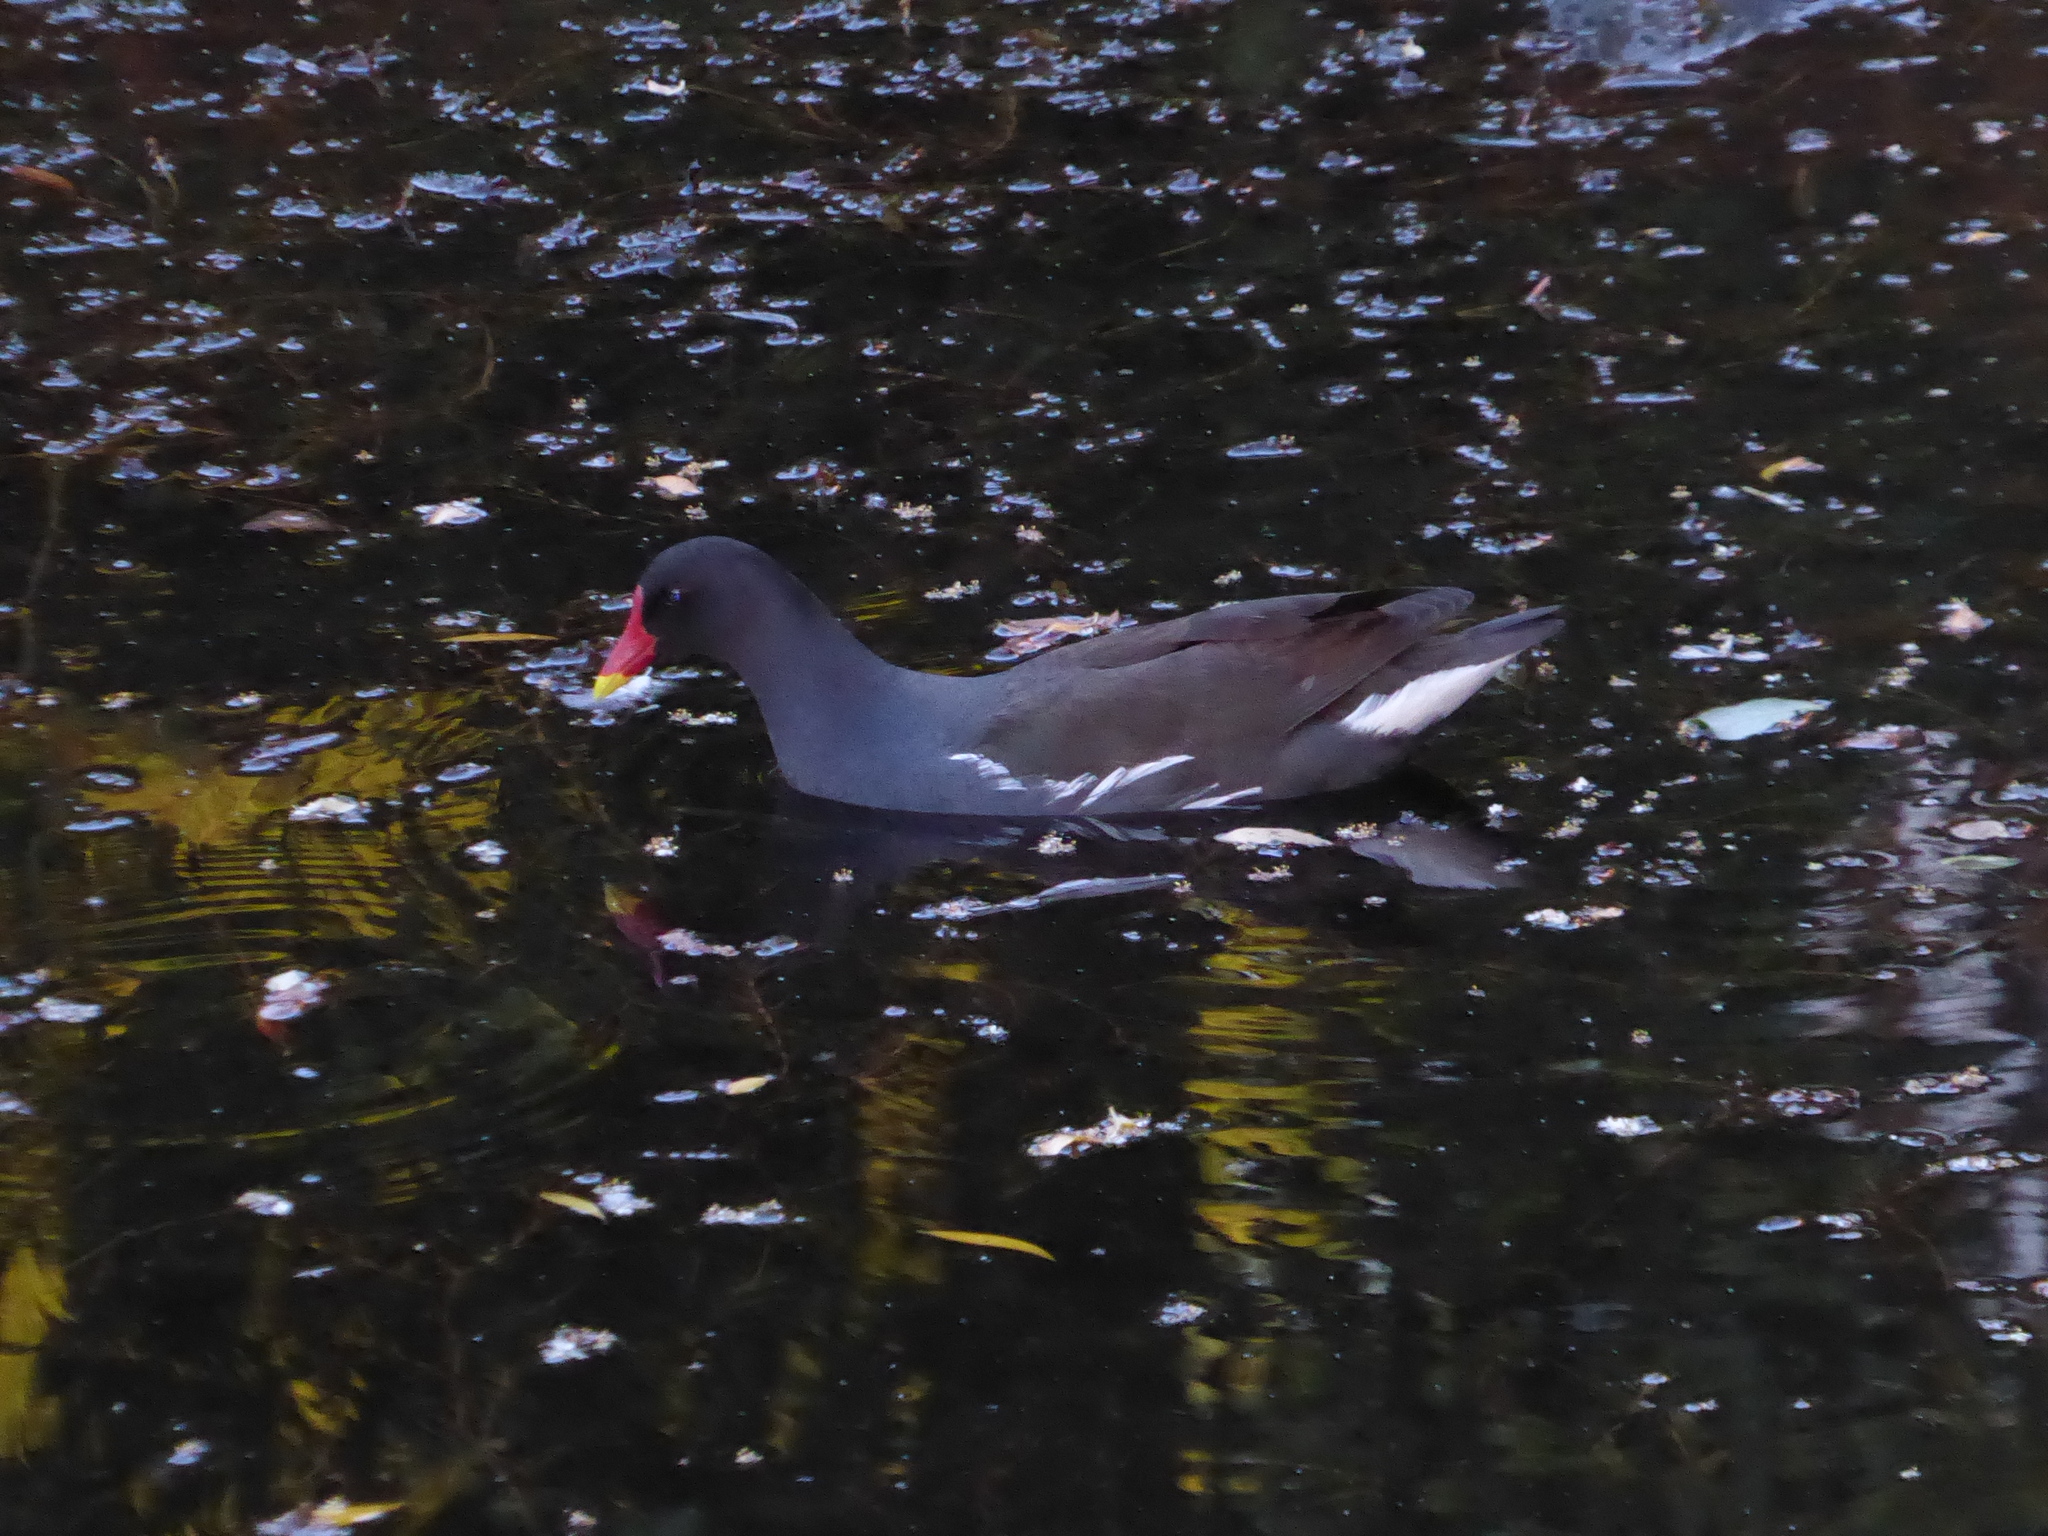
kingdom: Animalia
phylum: Chordata
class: Aves
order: Gruiformes
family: Rallidae
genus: Gallinula
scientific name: Gallinula chloropus
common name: Common moorhen
